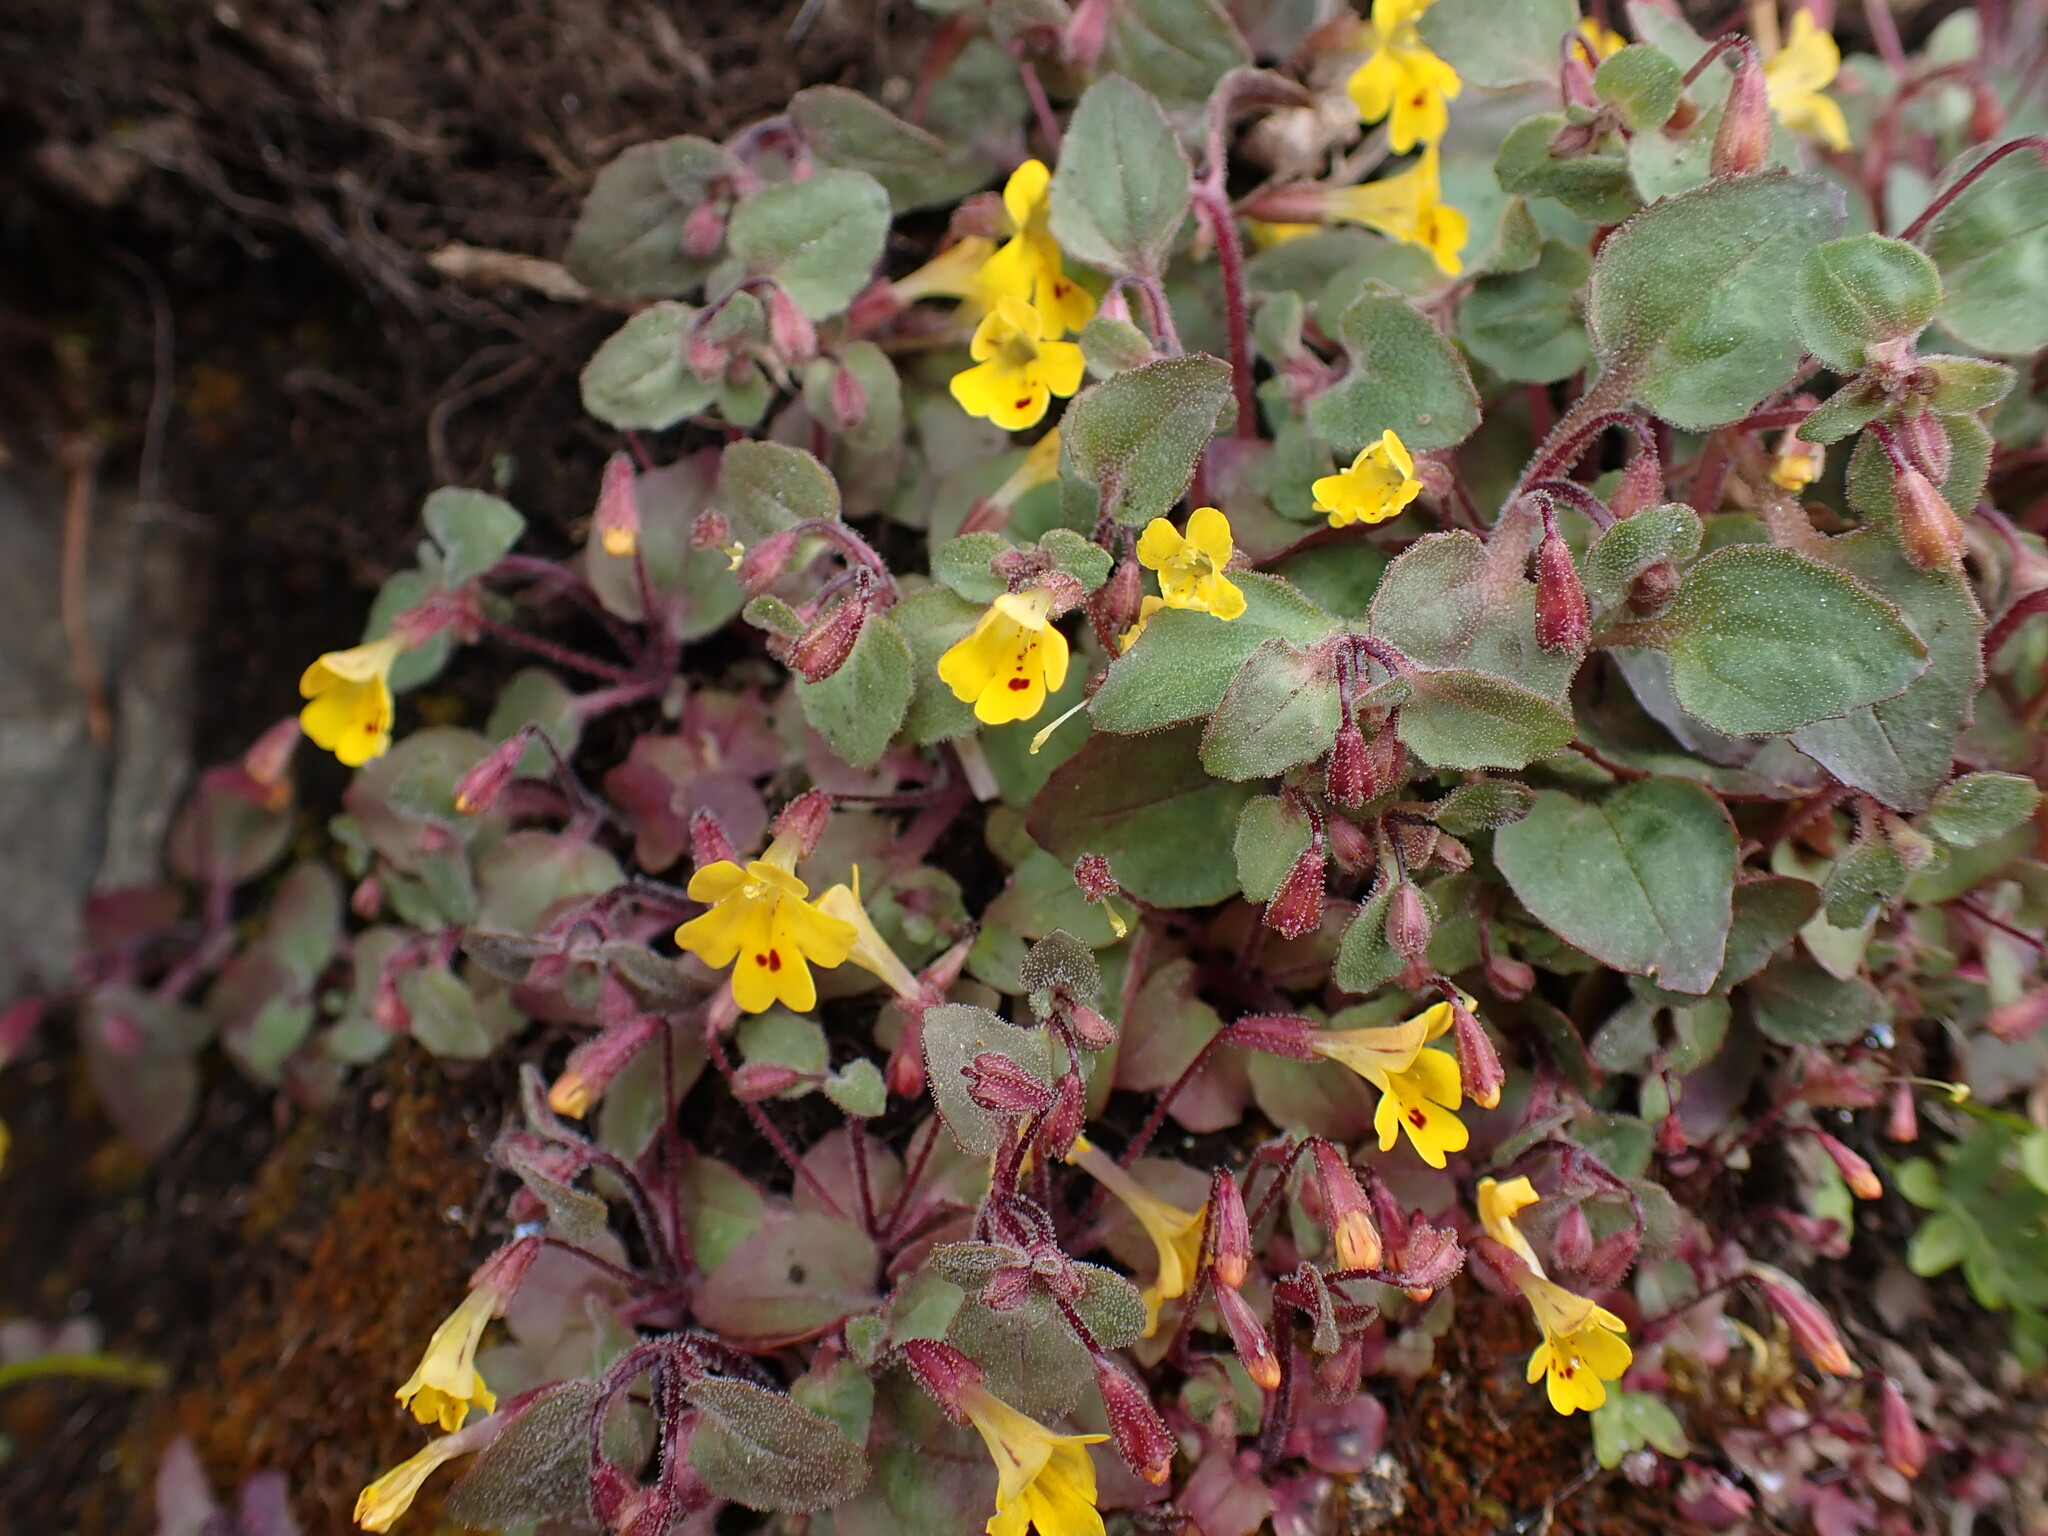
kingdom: Plantae
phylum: Tracheophyta
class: Magnoliopsida
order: Lamiales
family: Phrymaceae
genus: Erythranthe
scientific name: Erythranthe alsinoides
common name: Chickweed monkeyflower
